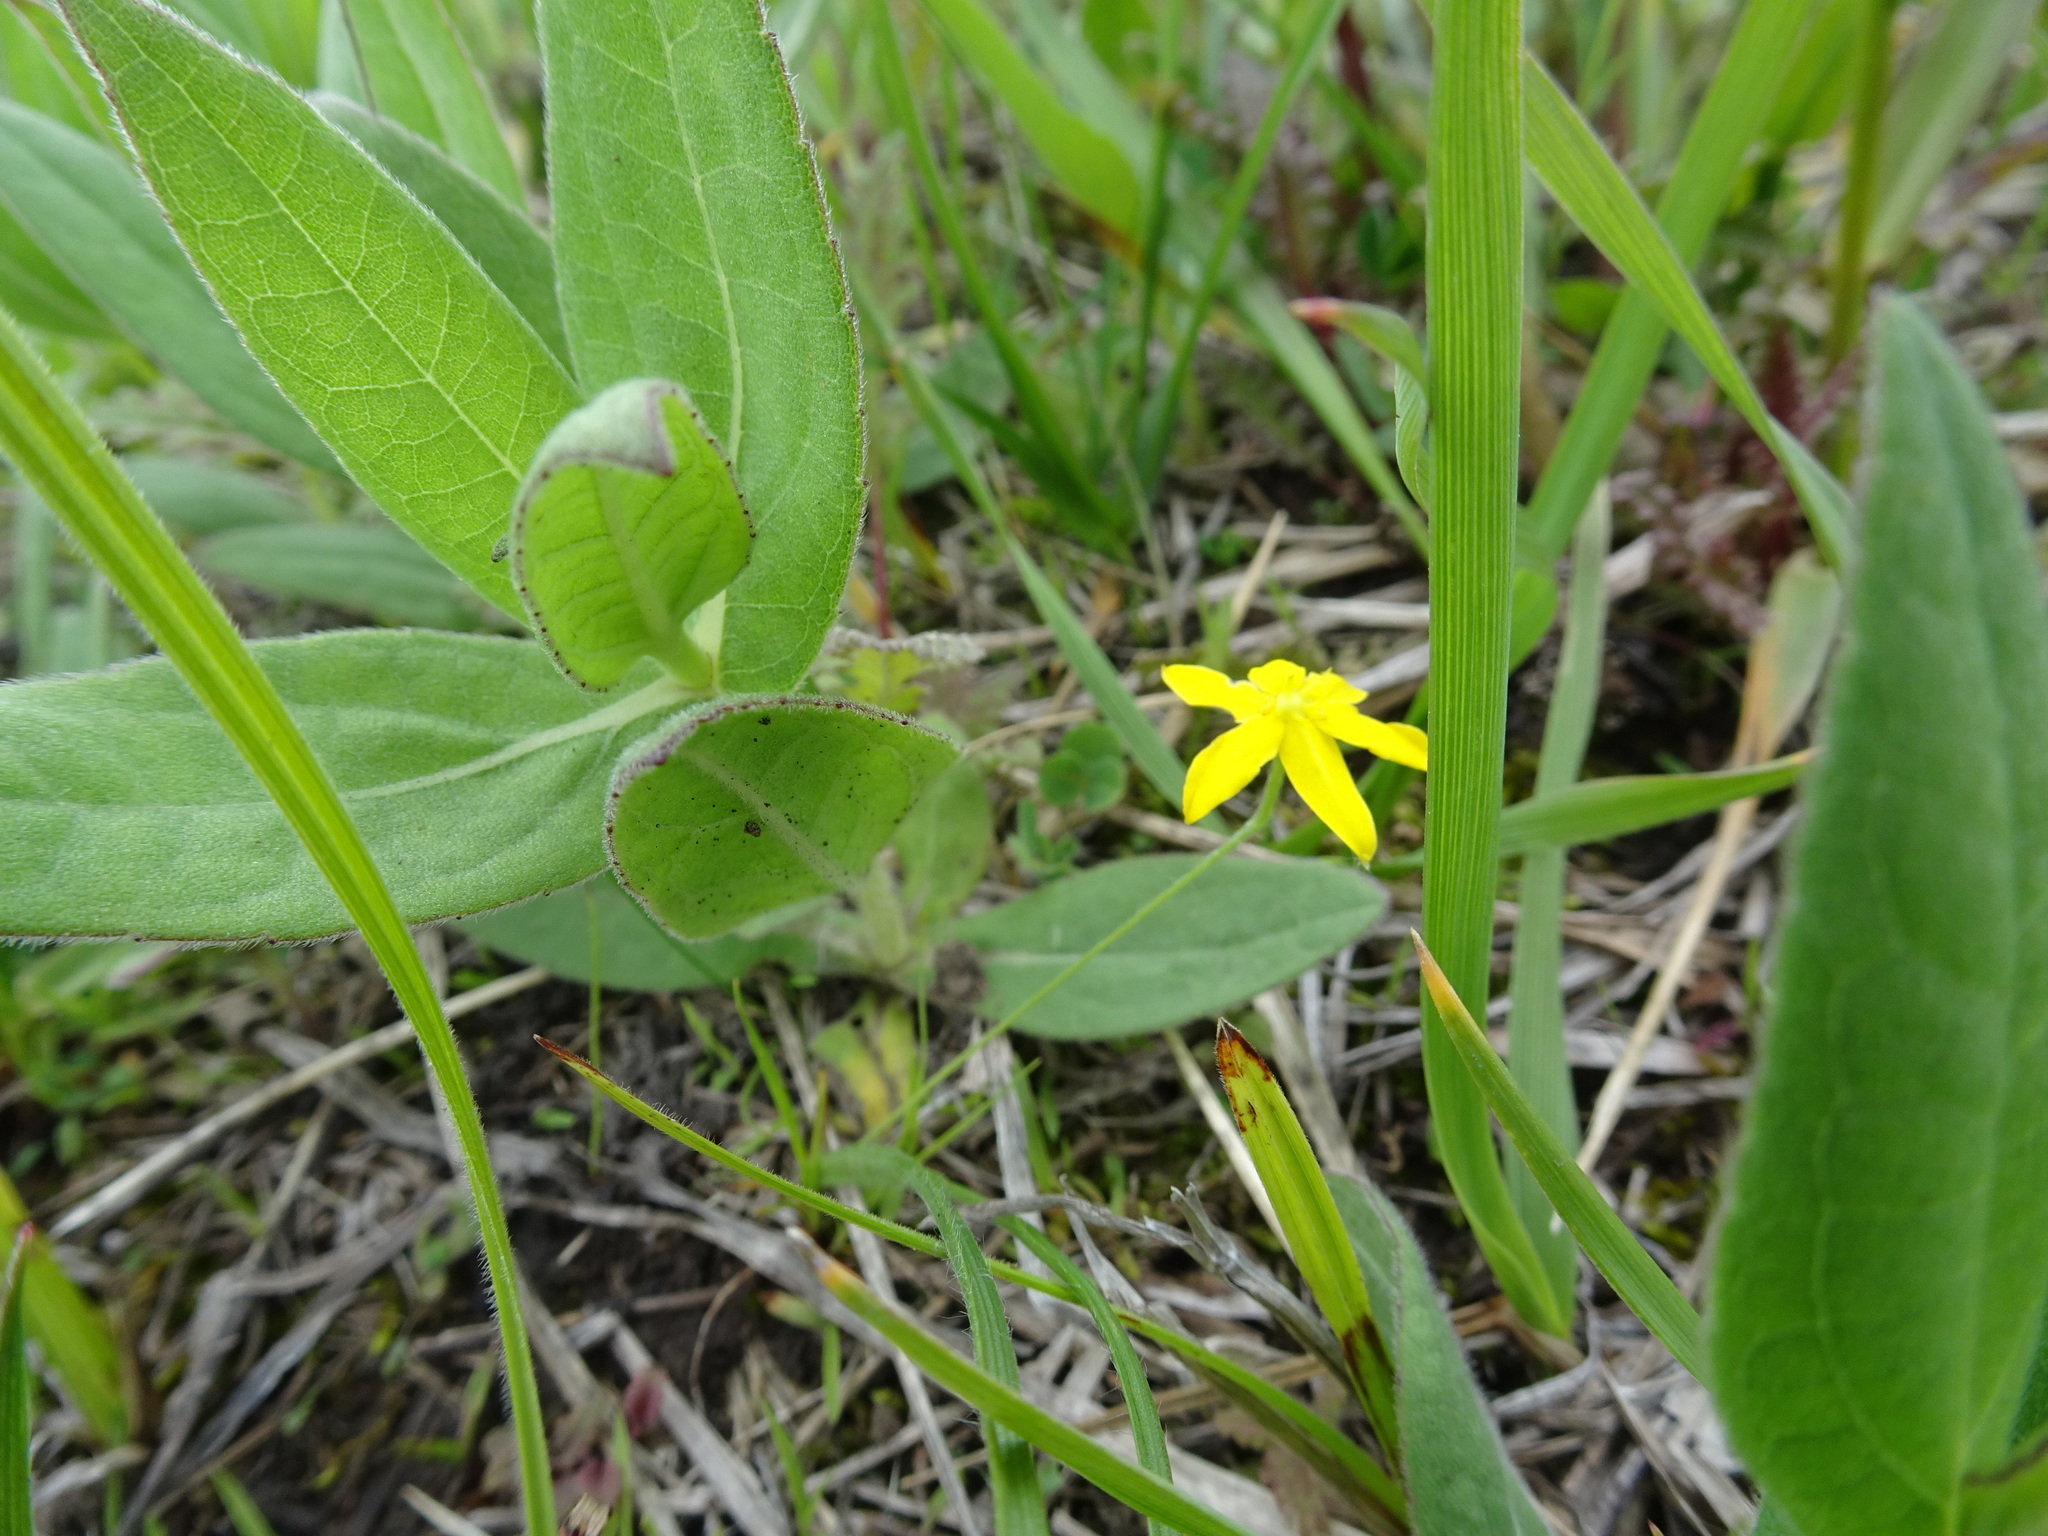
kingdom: Plantae
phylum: Tracheophyta
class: Liliopsida
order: Asparagales
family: Hypoxidaceae
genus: Hypoxis
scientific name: Hypoxis hirsuta
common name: Common goldstar
